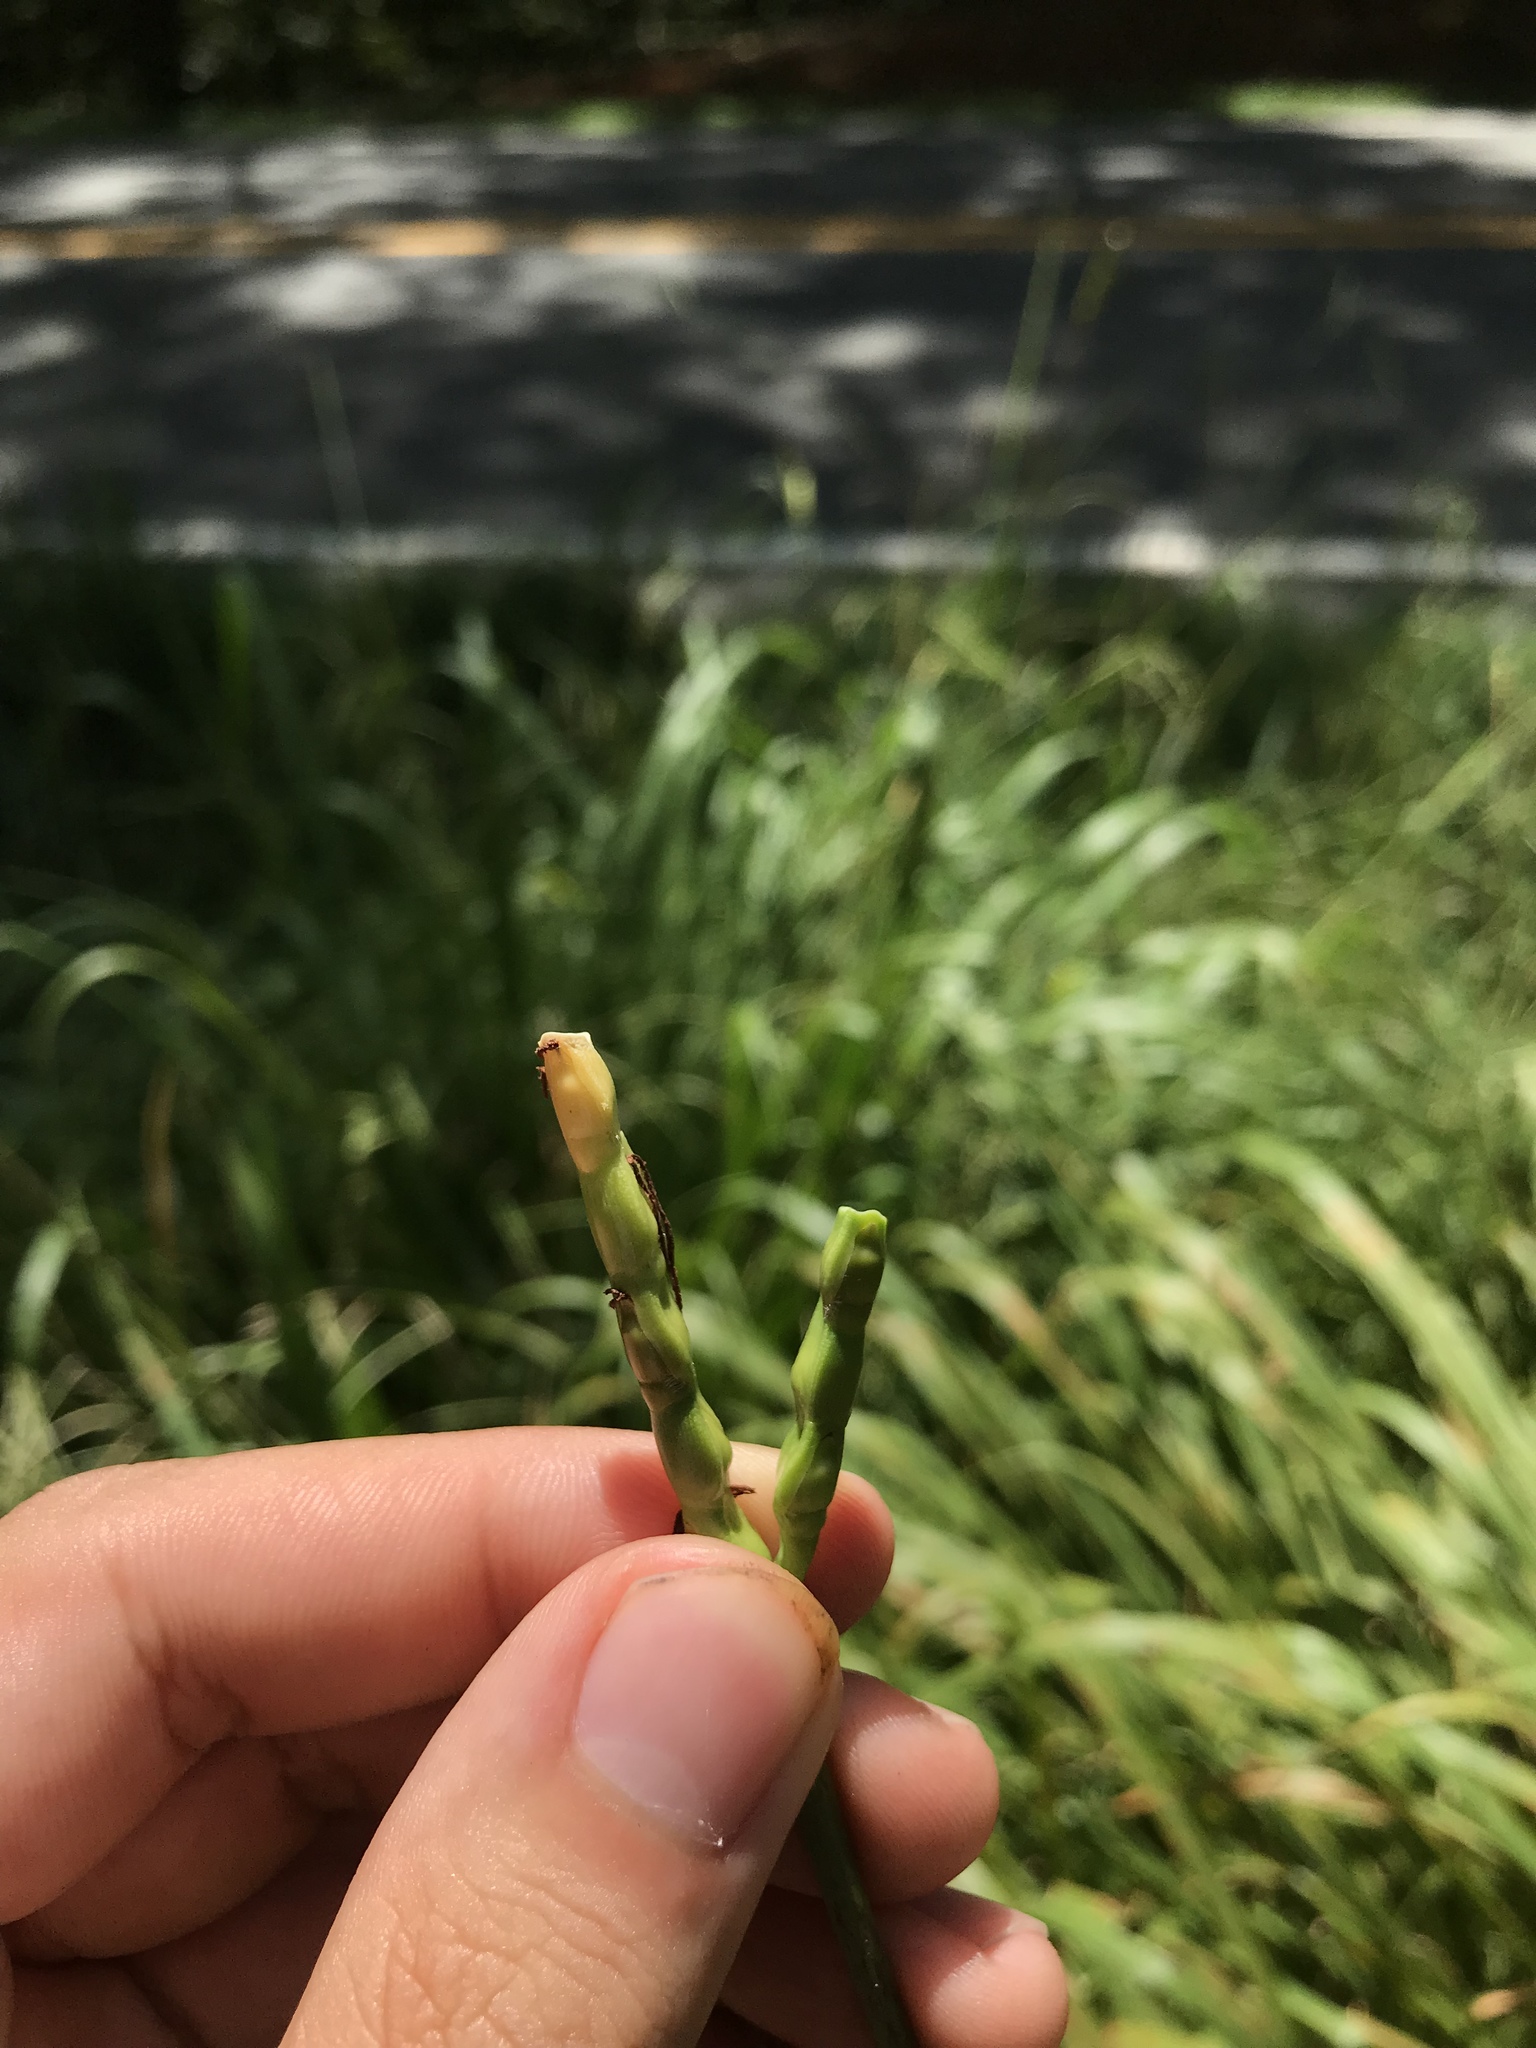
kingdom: Plantae
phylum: Tracheophyta
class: Liliopsida
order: Poales
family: Poaceae
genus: Tripsacum
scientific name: Tripsacum dactyloides
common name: Buffalo-grass
